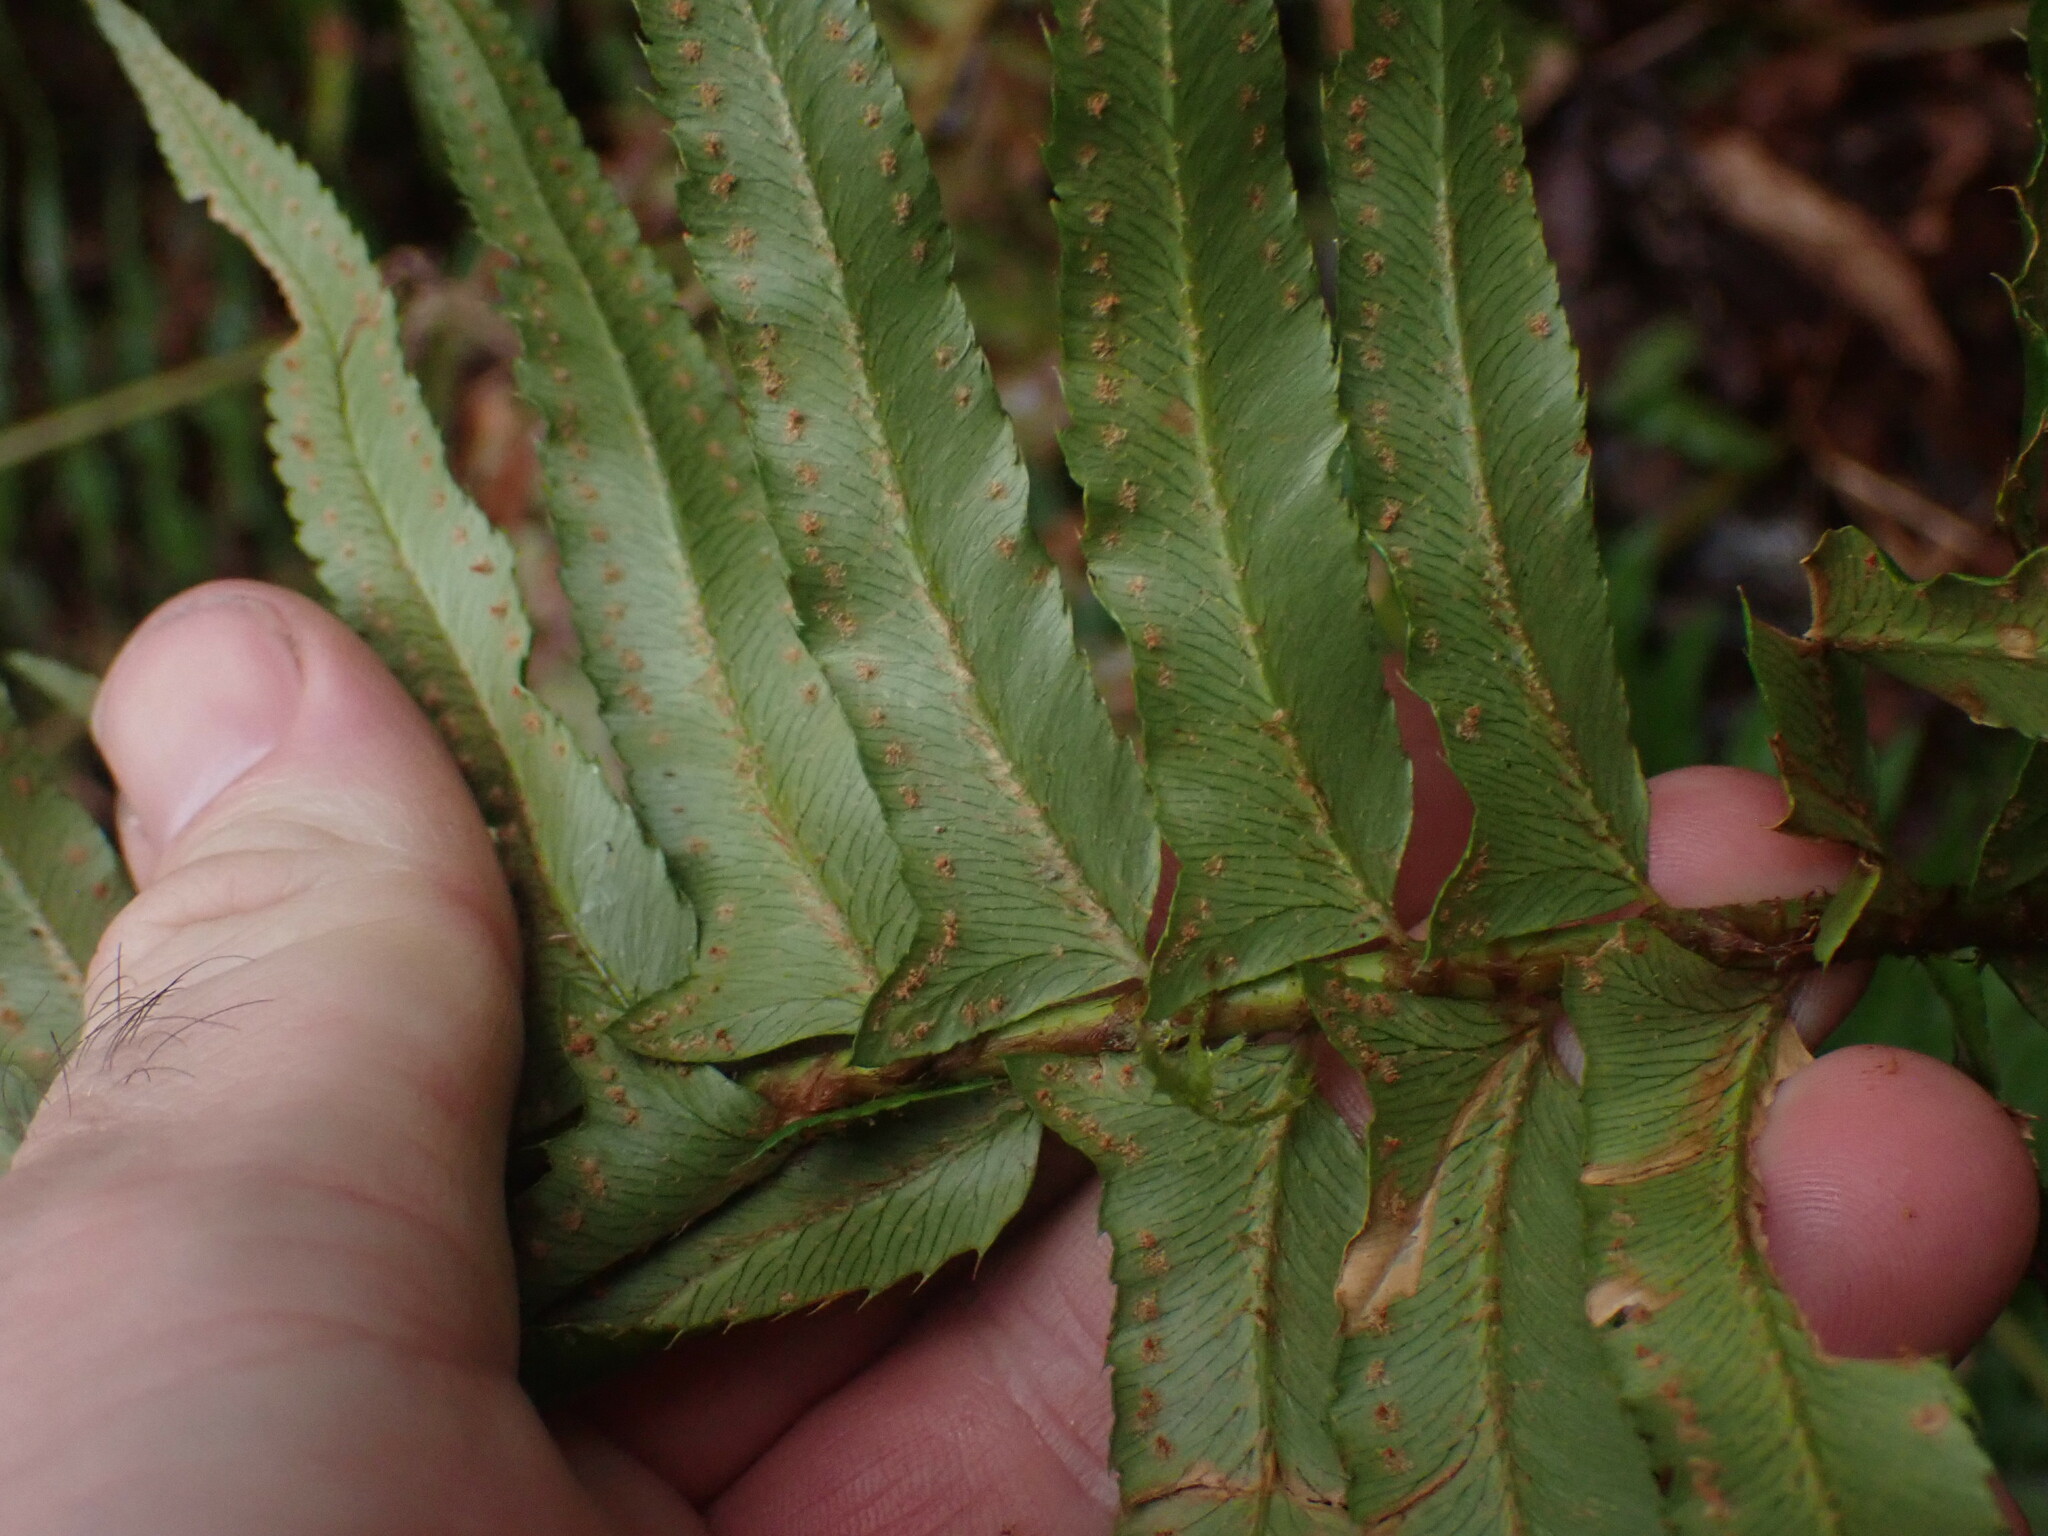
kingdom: Plantae
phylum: Tracheophyta
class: Polypodiopsida
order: Polypodiales
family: Dryopteridaceae
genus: Polystichum
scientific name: Polystichum munitum
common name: Western sword-fern
